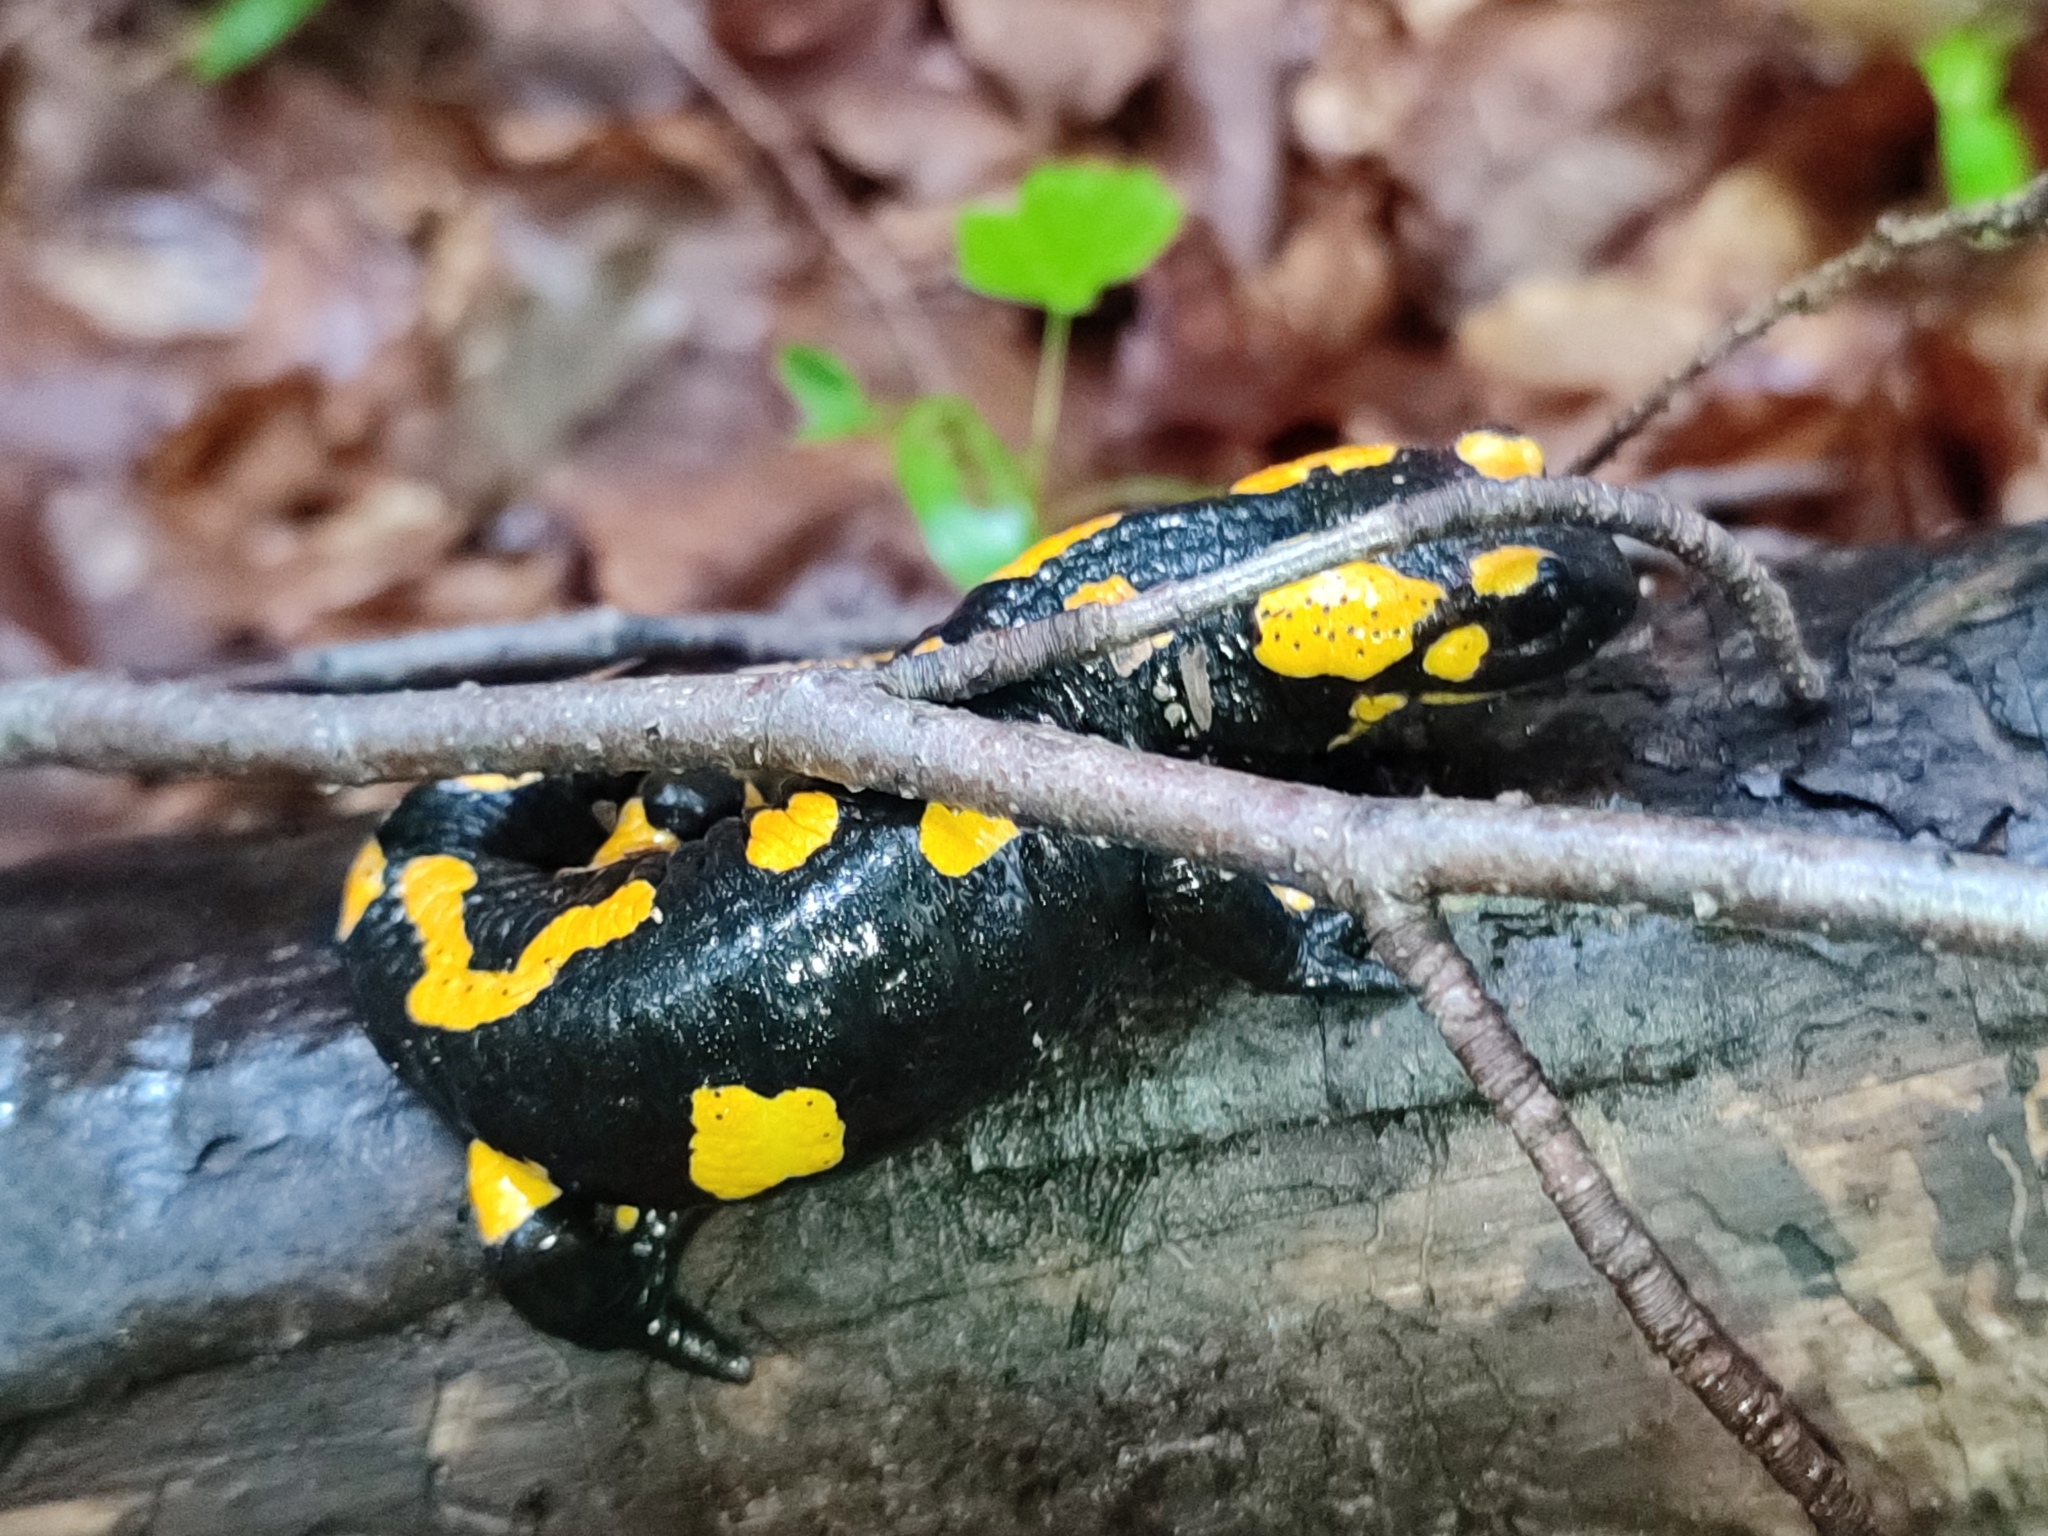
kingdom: Animalia
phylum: Chordata
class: Amphibia
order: Caudata
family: Salamandridae
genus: Salamandra
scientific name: Salamandra salamandra
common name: Fire salamander
